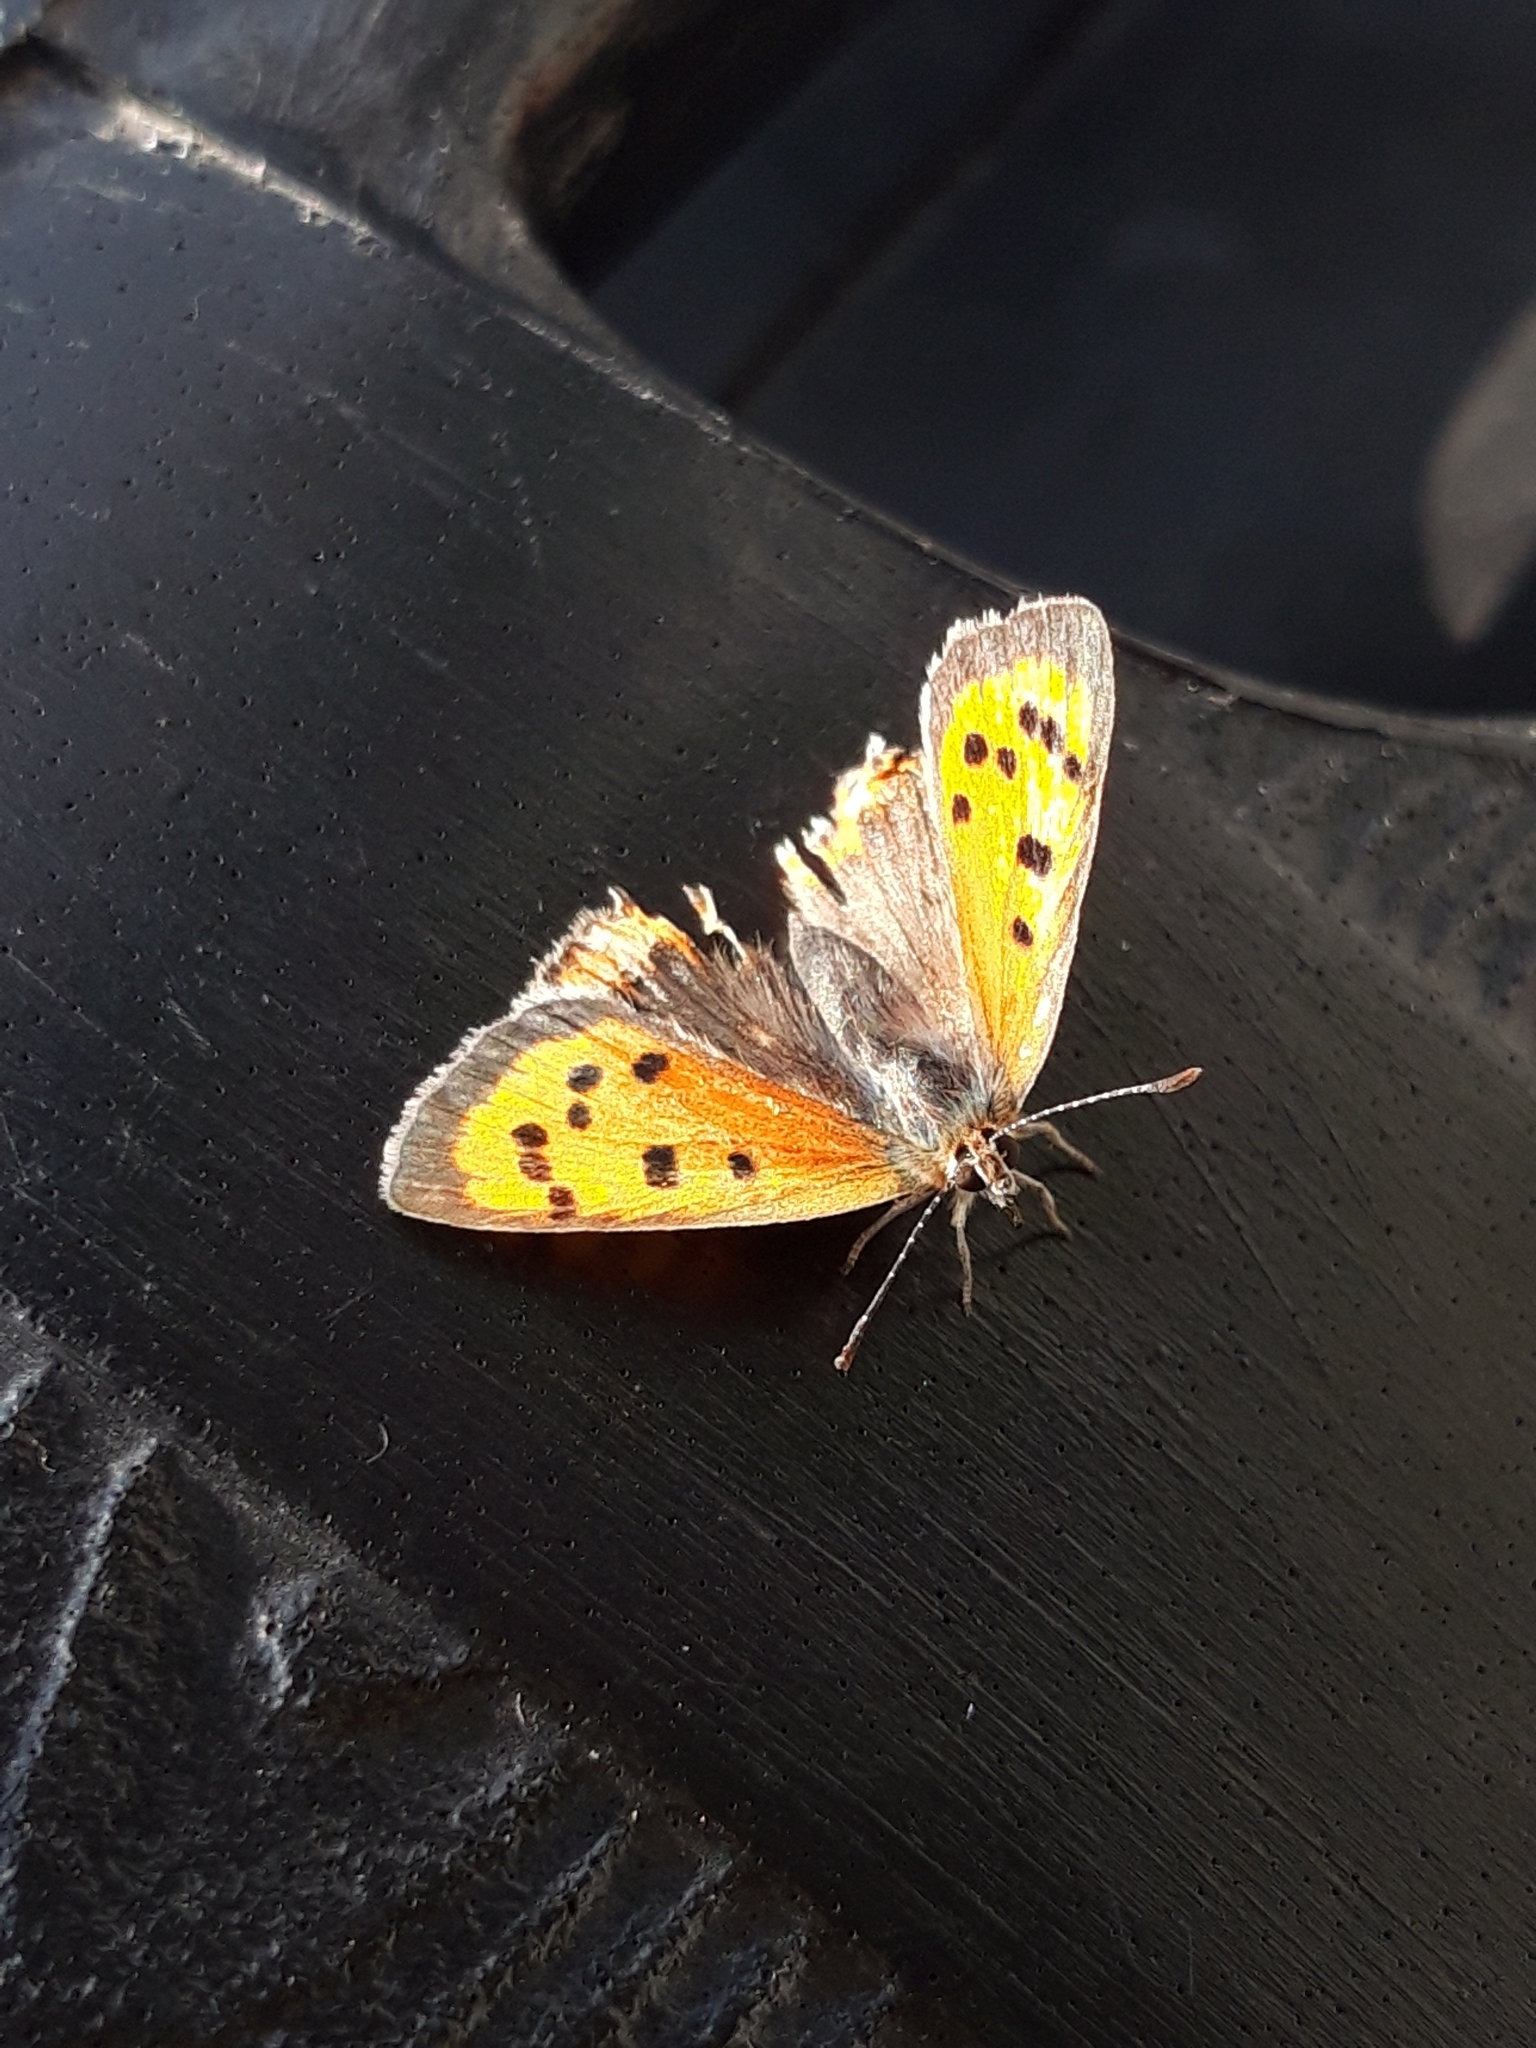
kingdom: Animalia
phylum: Arthropoda
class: Insecta
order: Lepidoptera
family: Lycaenidae
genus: Lycaena
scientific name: Lycaena phlaeas
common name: Small copper
